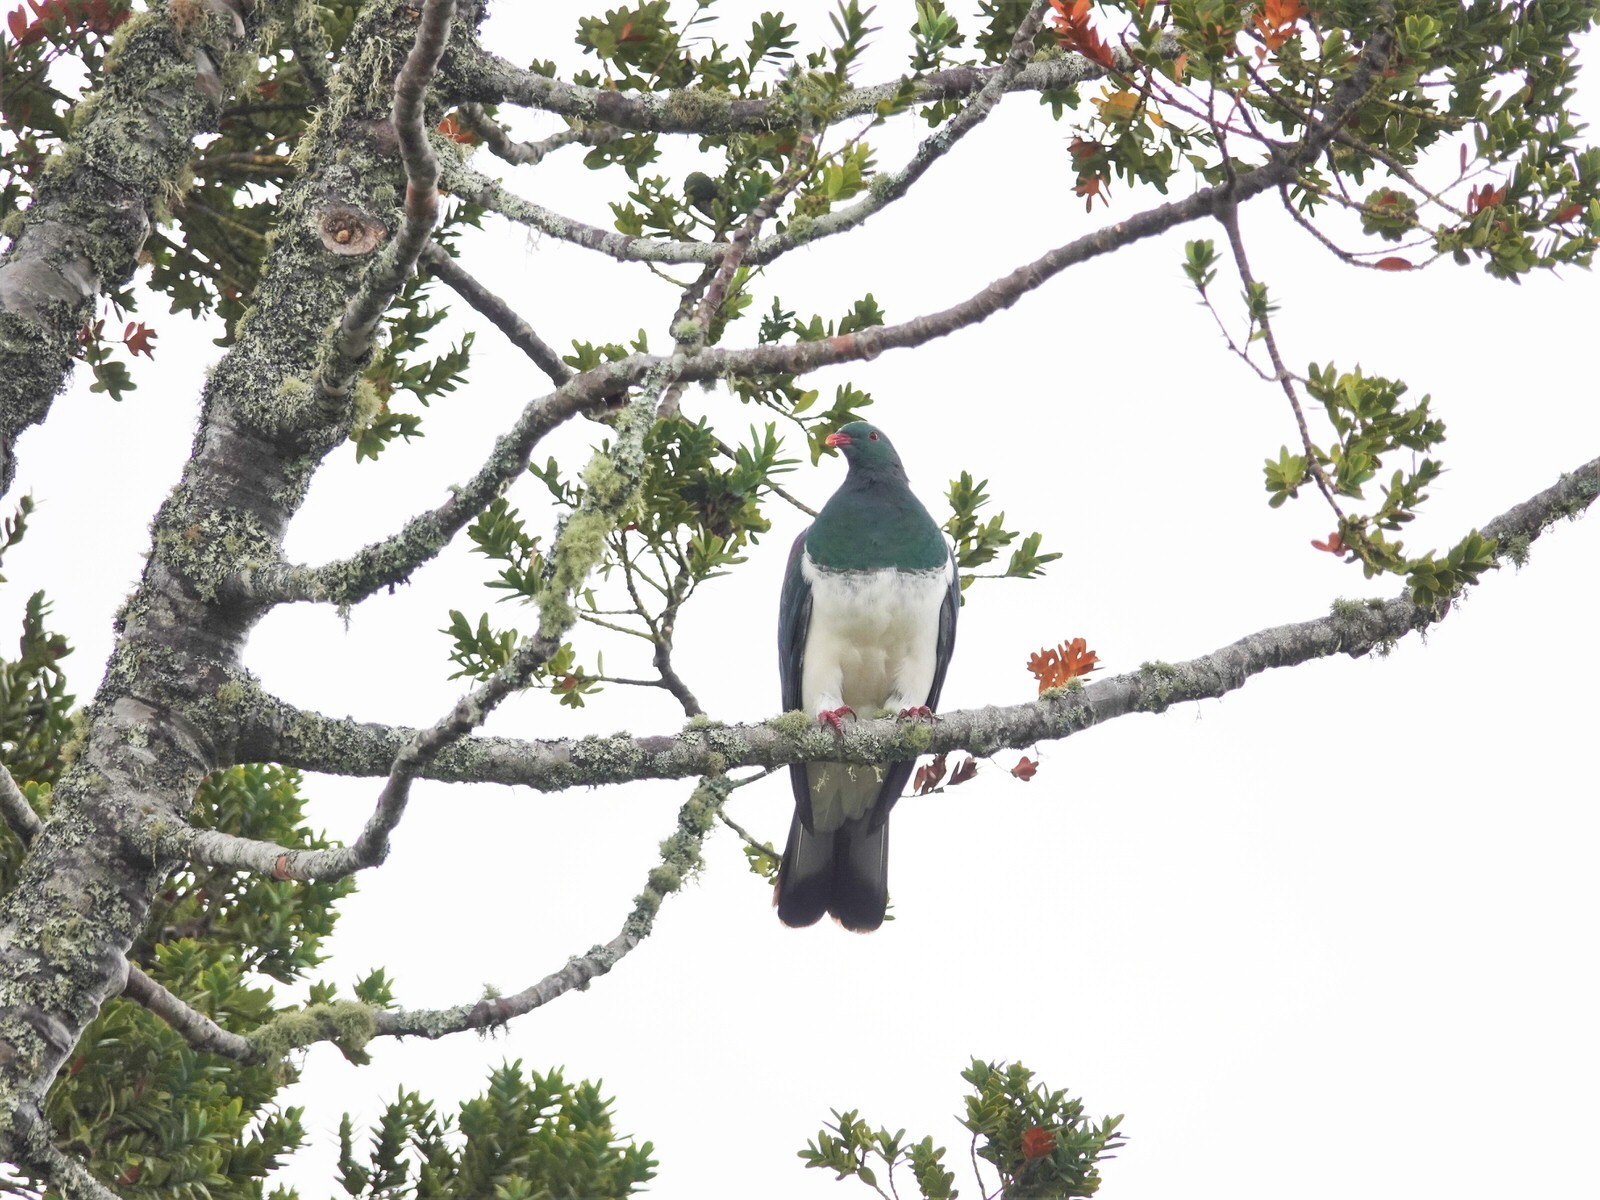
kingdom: Animalia
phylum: Chordata
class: Aves
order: Columbiformes
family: Columbidae
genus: Hemiphaga
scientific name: Hemiphaga novaeseelandiae
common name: New zealand pigeon
